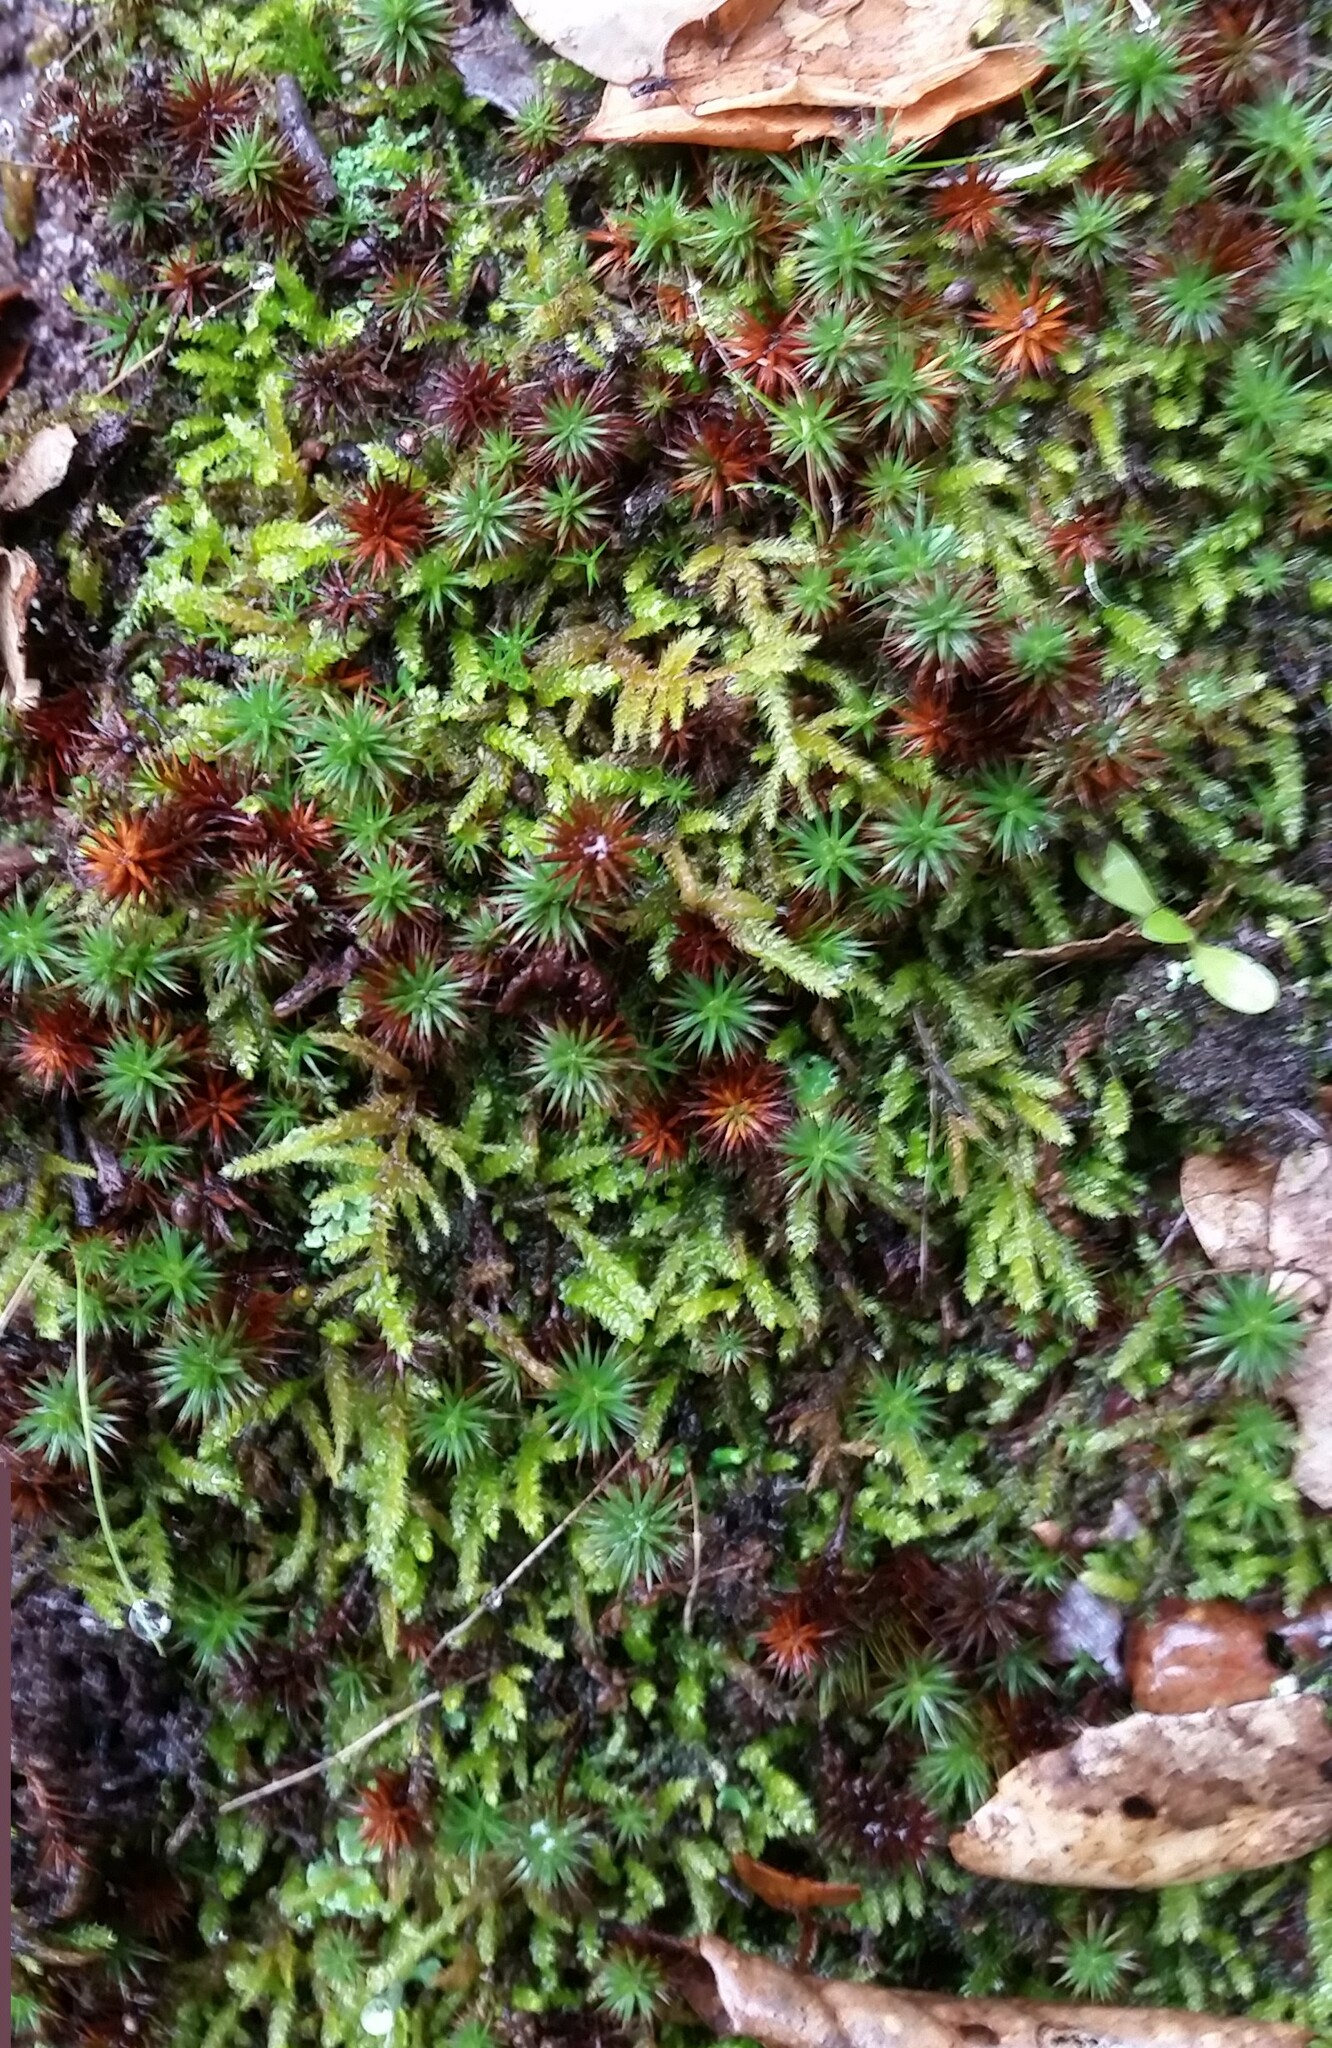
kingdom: Plantae
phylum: Bryophyta
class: Polytrichopsida
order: Polytrichales
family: Polytrichaceae
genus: Polytrichum
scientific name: Polytrichum juniperinum
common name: Juniper haircap moss
